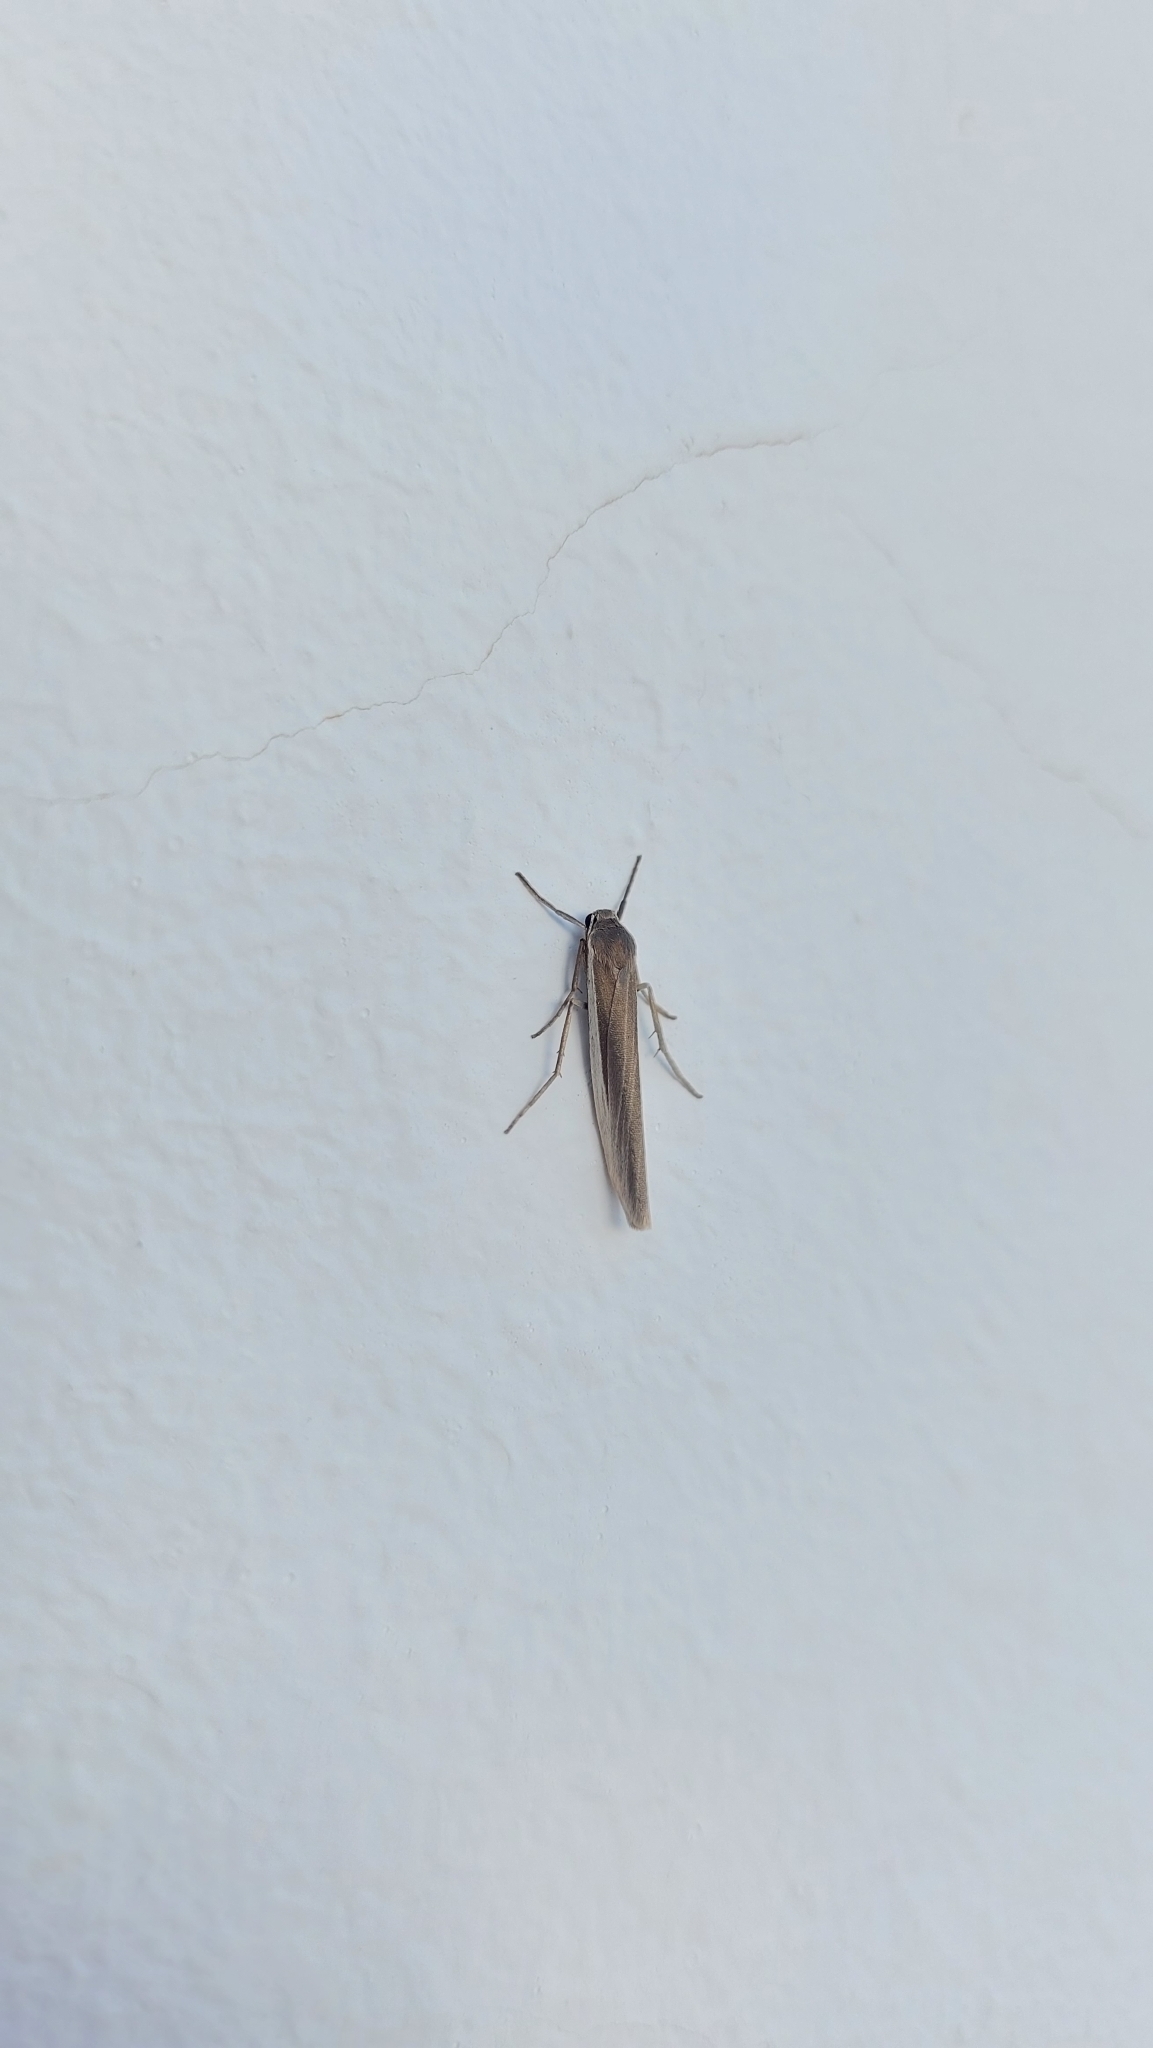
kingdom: Animalia
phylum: Arthropoda
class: Insecta
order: Lepidoptera
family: Erebidae
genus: Indalia
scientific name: Indalia albicosta
